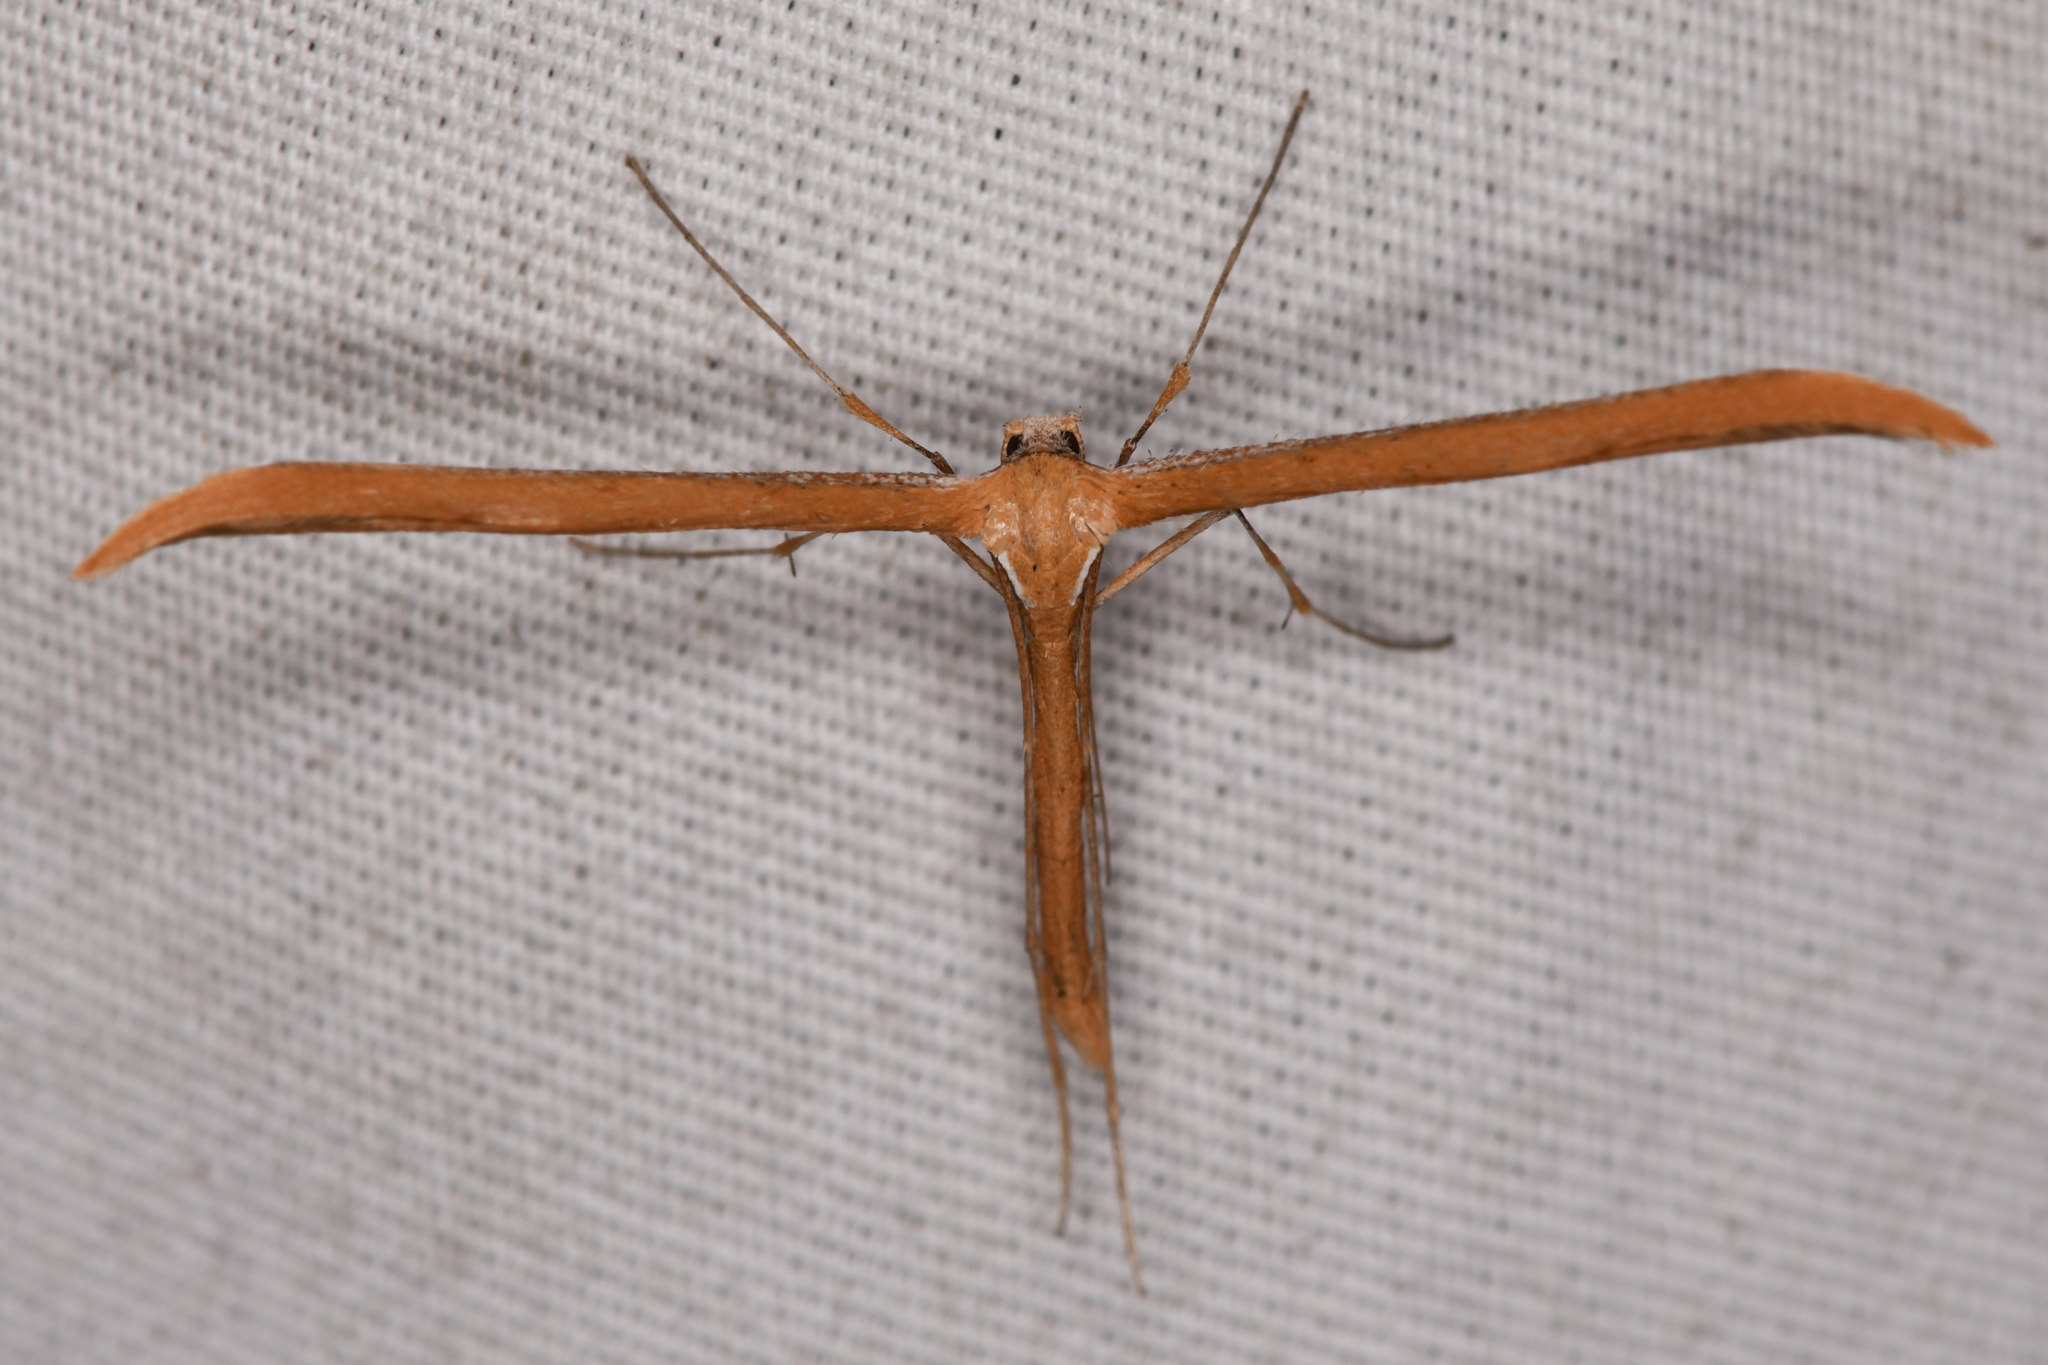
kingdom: Animalia
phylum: Arthropoda
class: Insecta
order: Lepidoptera
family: Pterophoridae
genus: Emmelina
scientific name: Emmelina monodactyla
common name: Common plume
